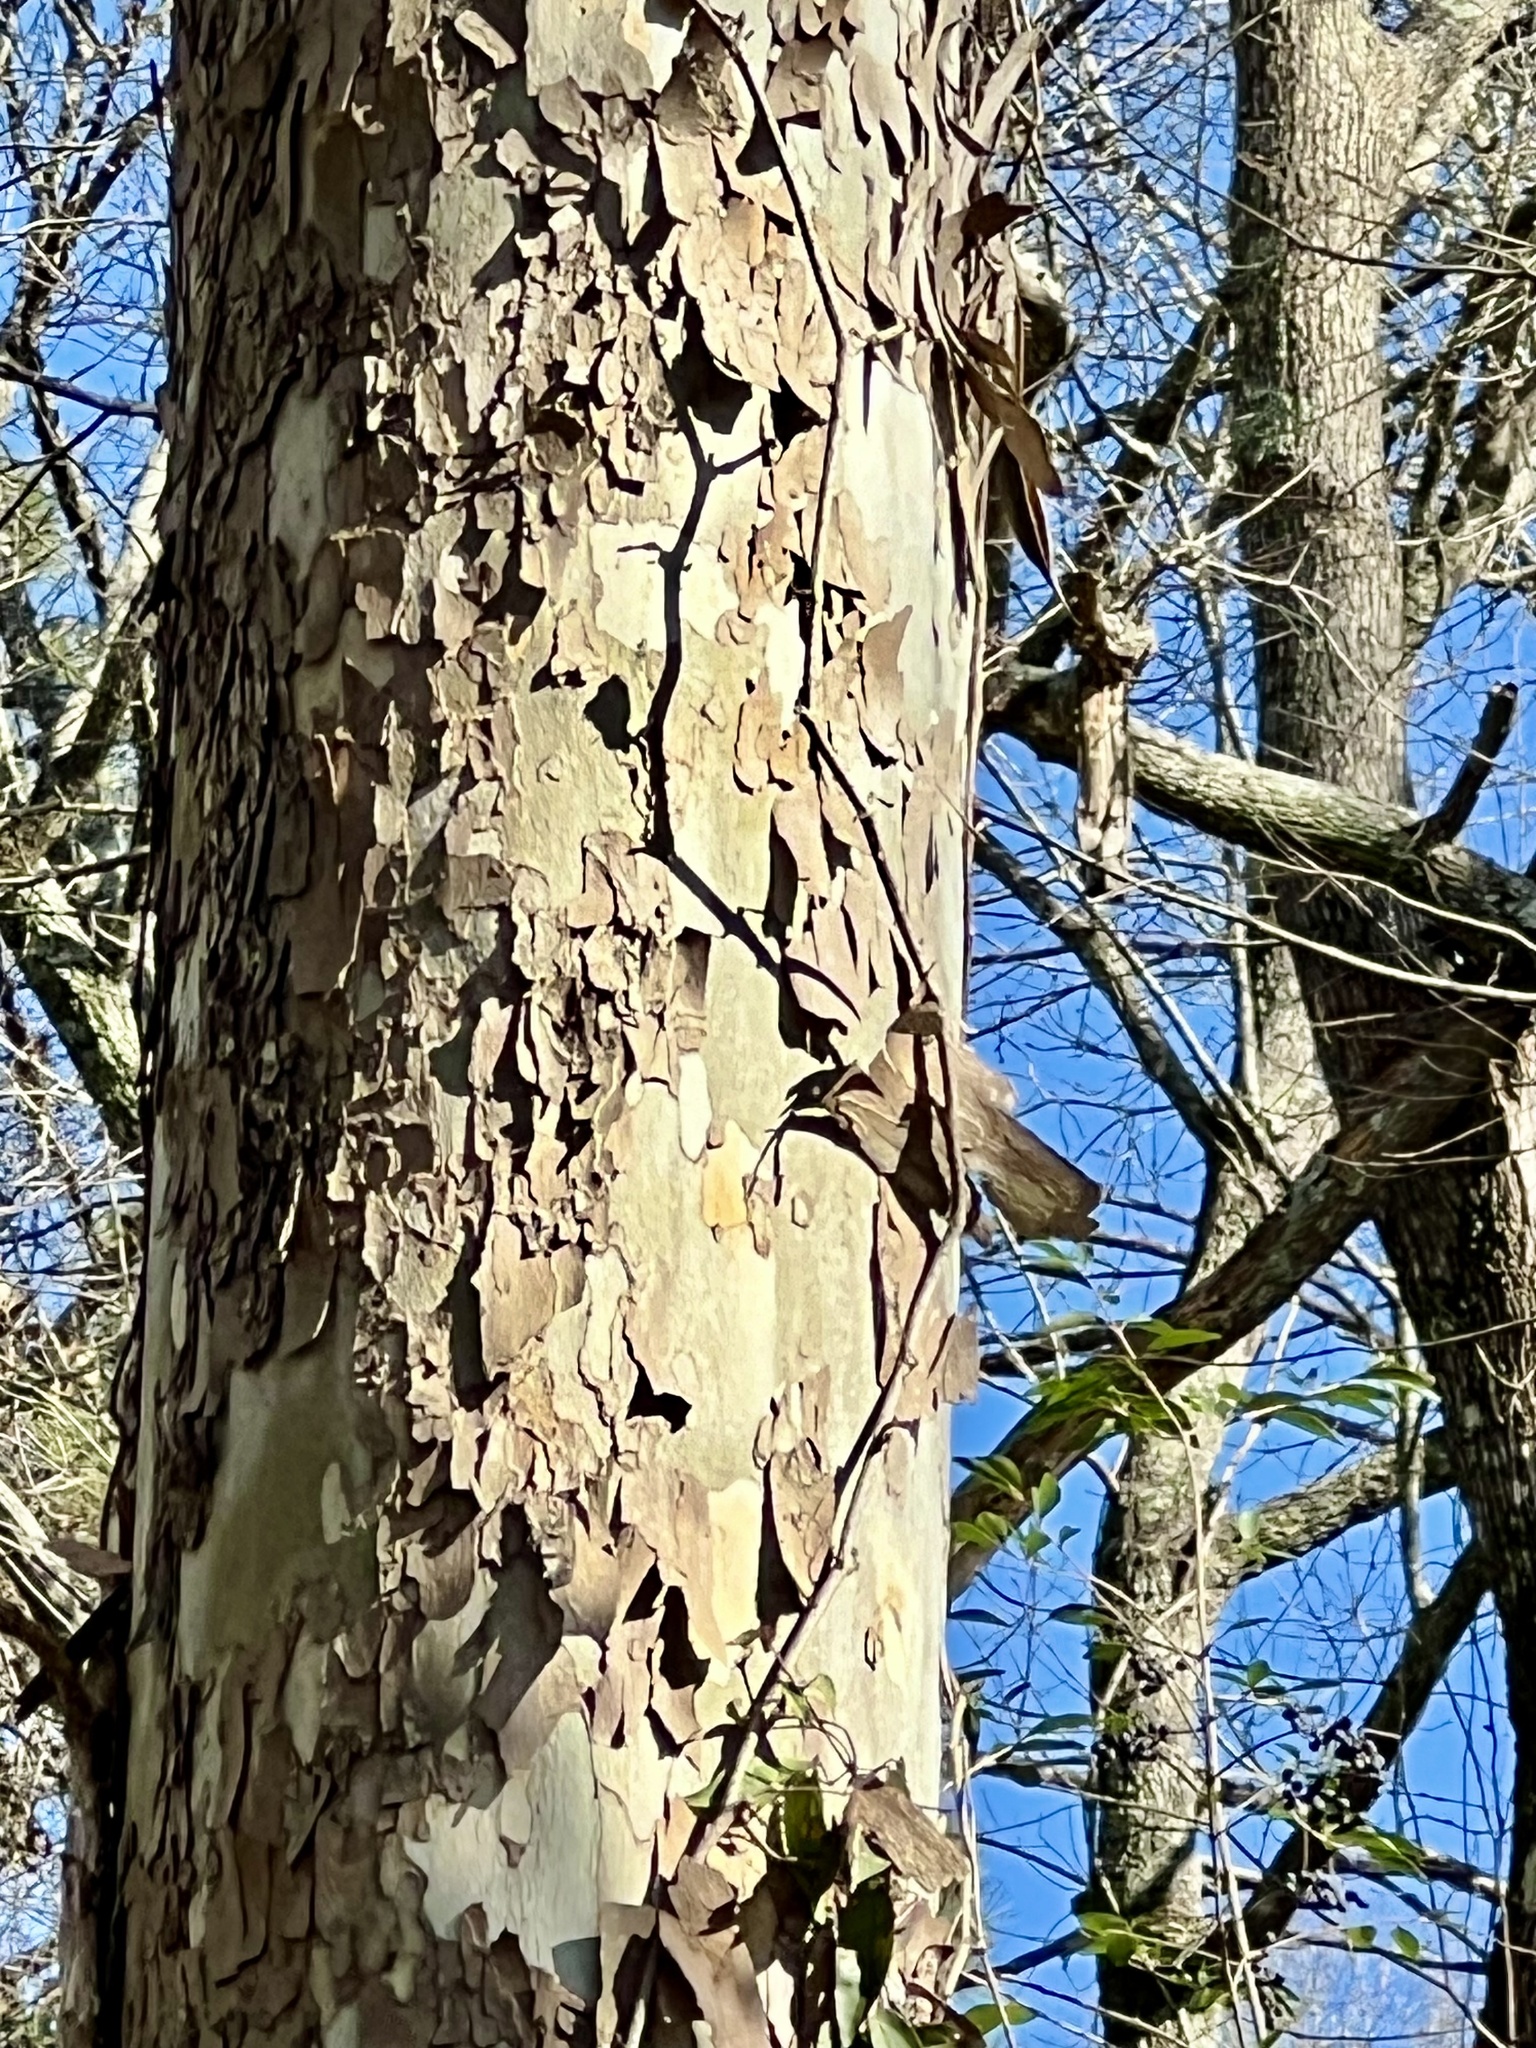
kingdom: Plantae
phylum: Tracheophyta
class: Magnoliopsida
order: Proteales
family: Platanaceae
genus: Platanus
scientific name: Platanus occidentalis
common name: American sycamore
